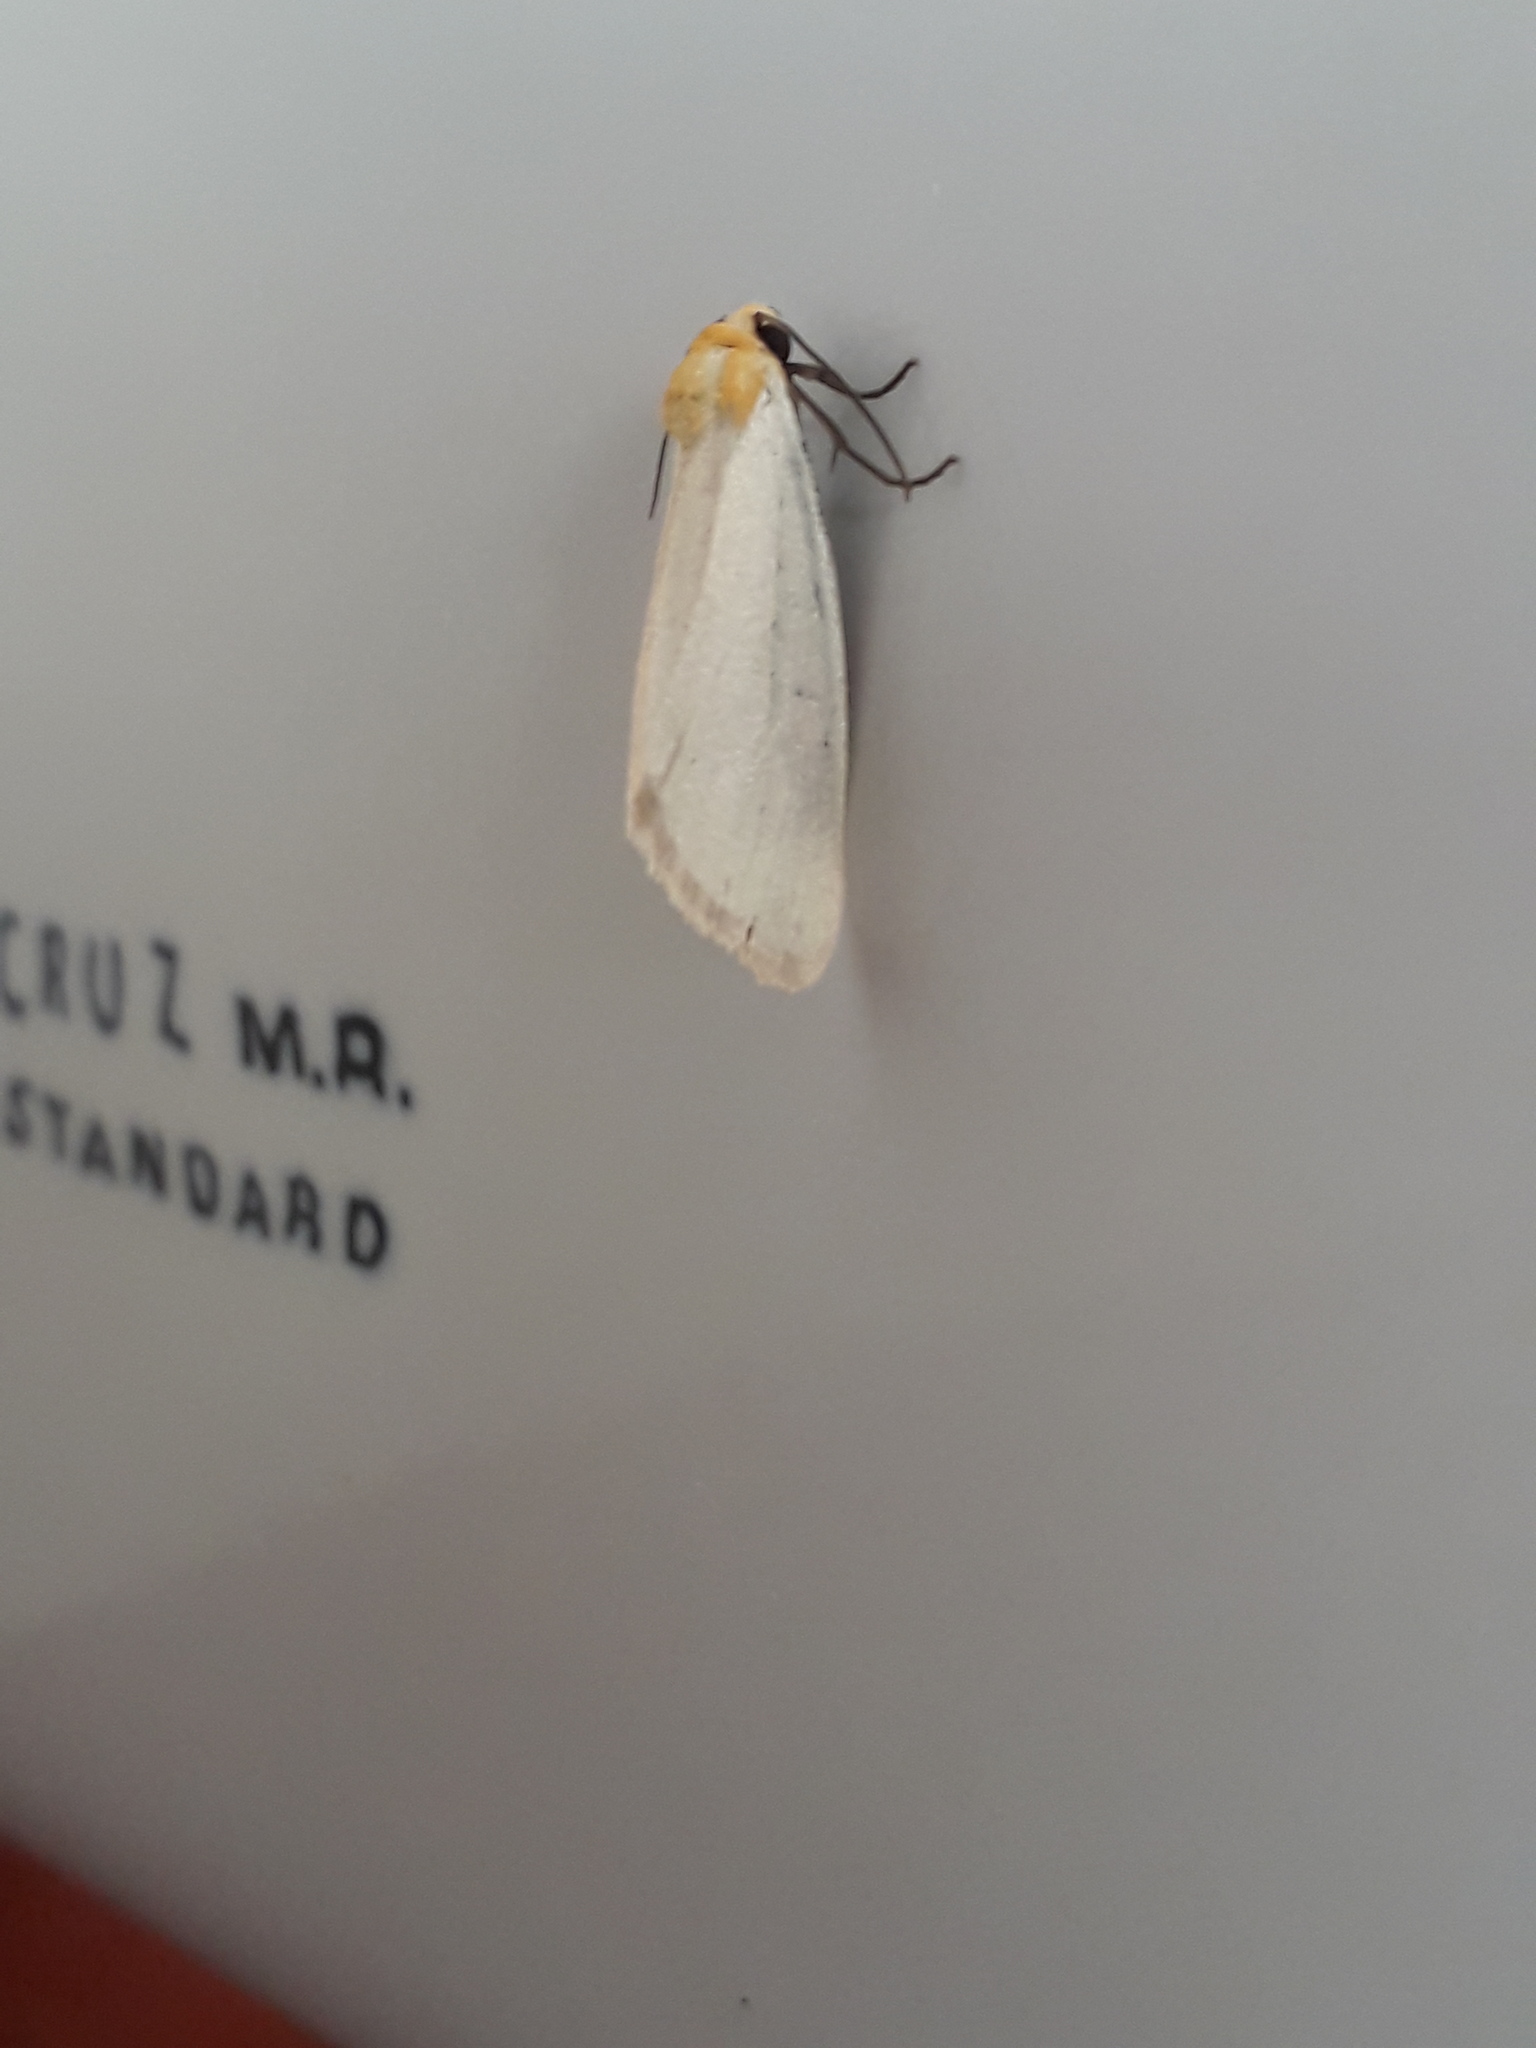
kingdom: Animalia
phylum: Arthropoda
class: Insecta
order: Lepidoptera
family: Noctuidae
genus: Chrysoecia
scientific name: Chrysoecia thoracica
